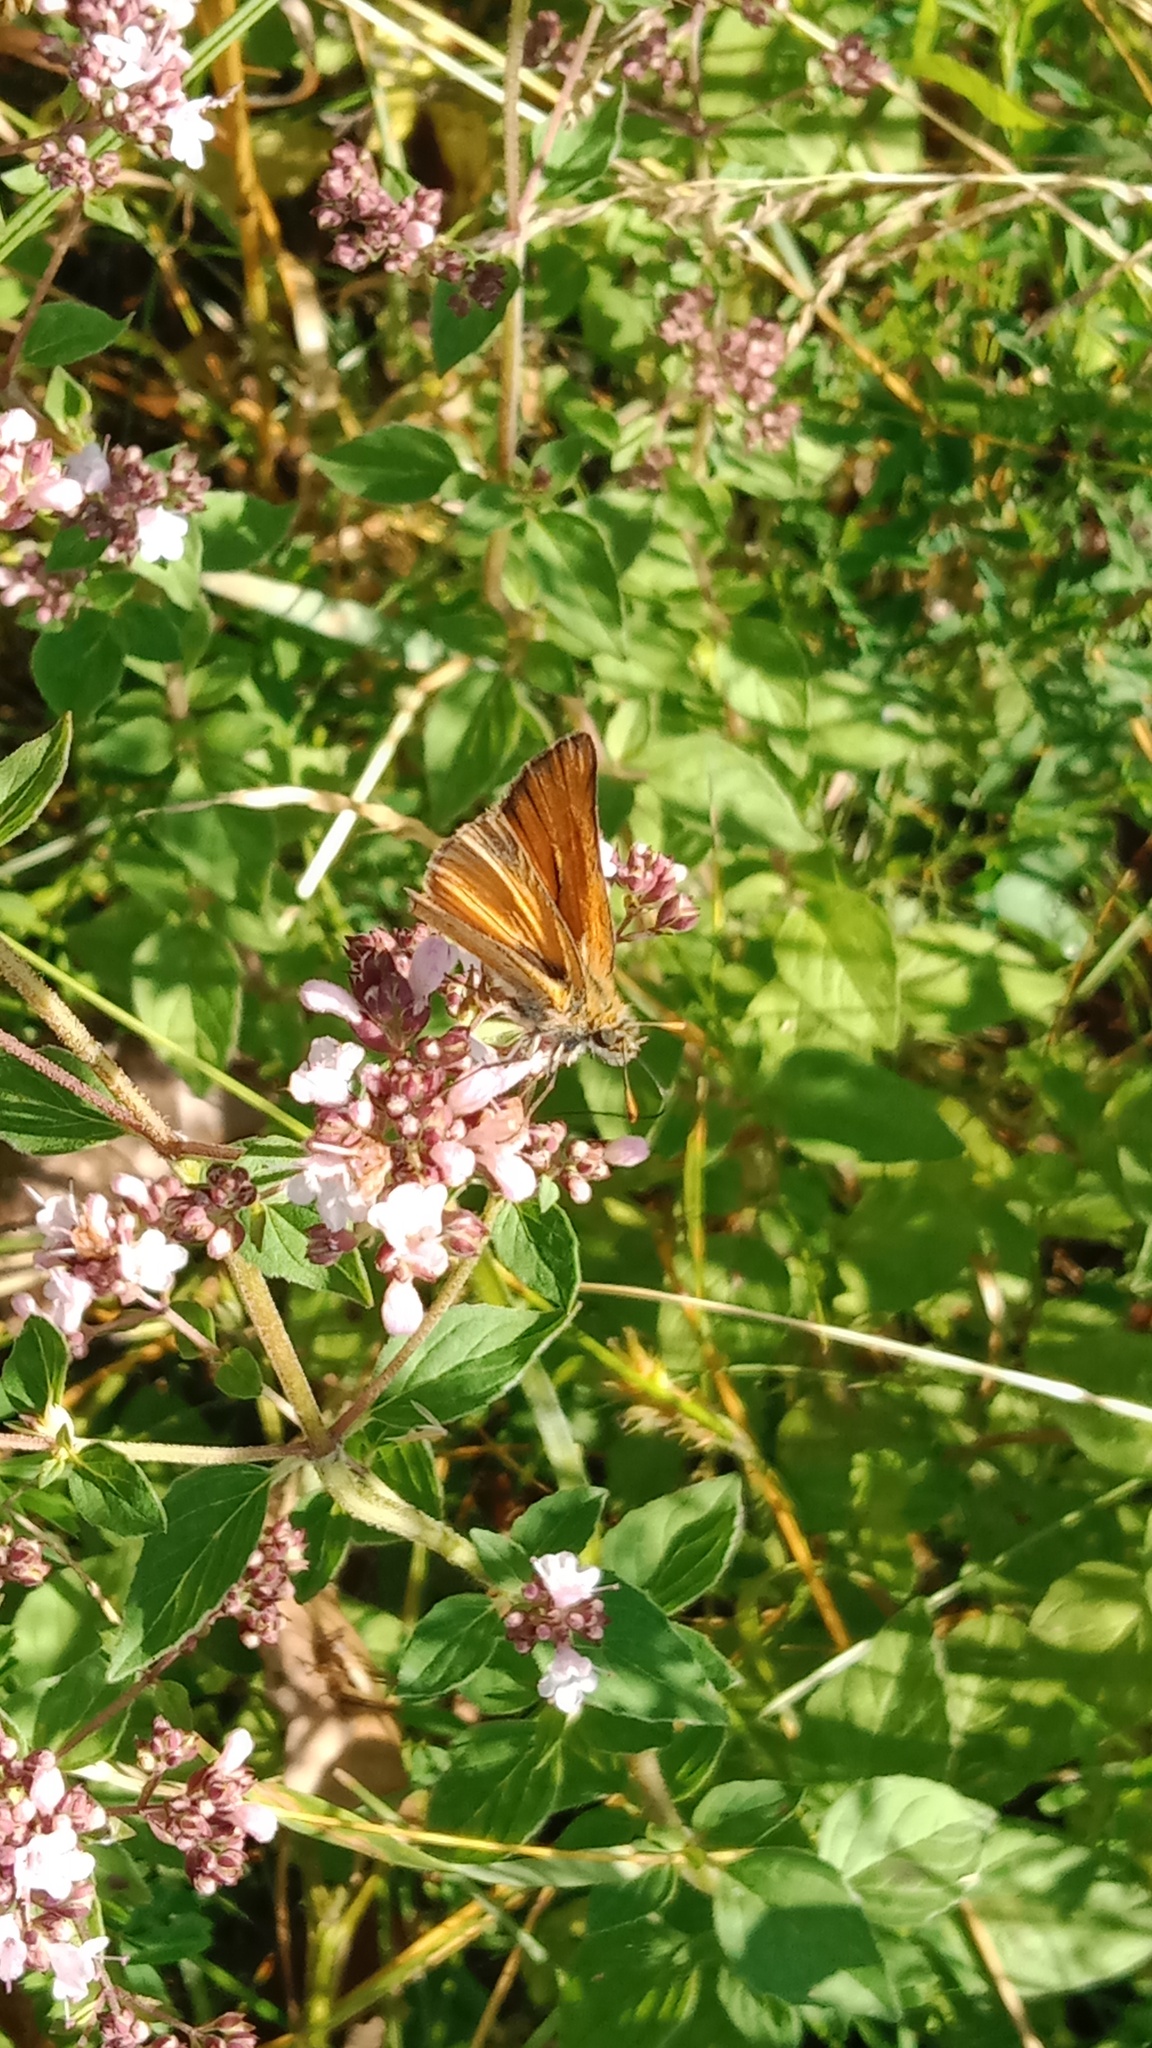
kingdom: Animalia
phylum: Arthropoda
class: Insecta
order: Lepidoptera
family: Hesperiidae
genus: Thymelicus
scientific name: Thymelicus sylvestris
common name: Small skipper
